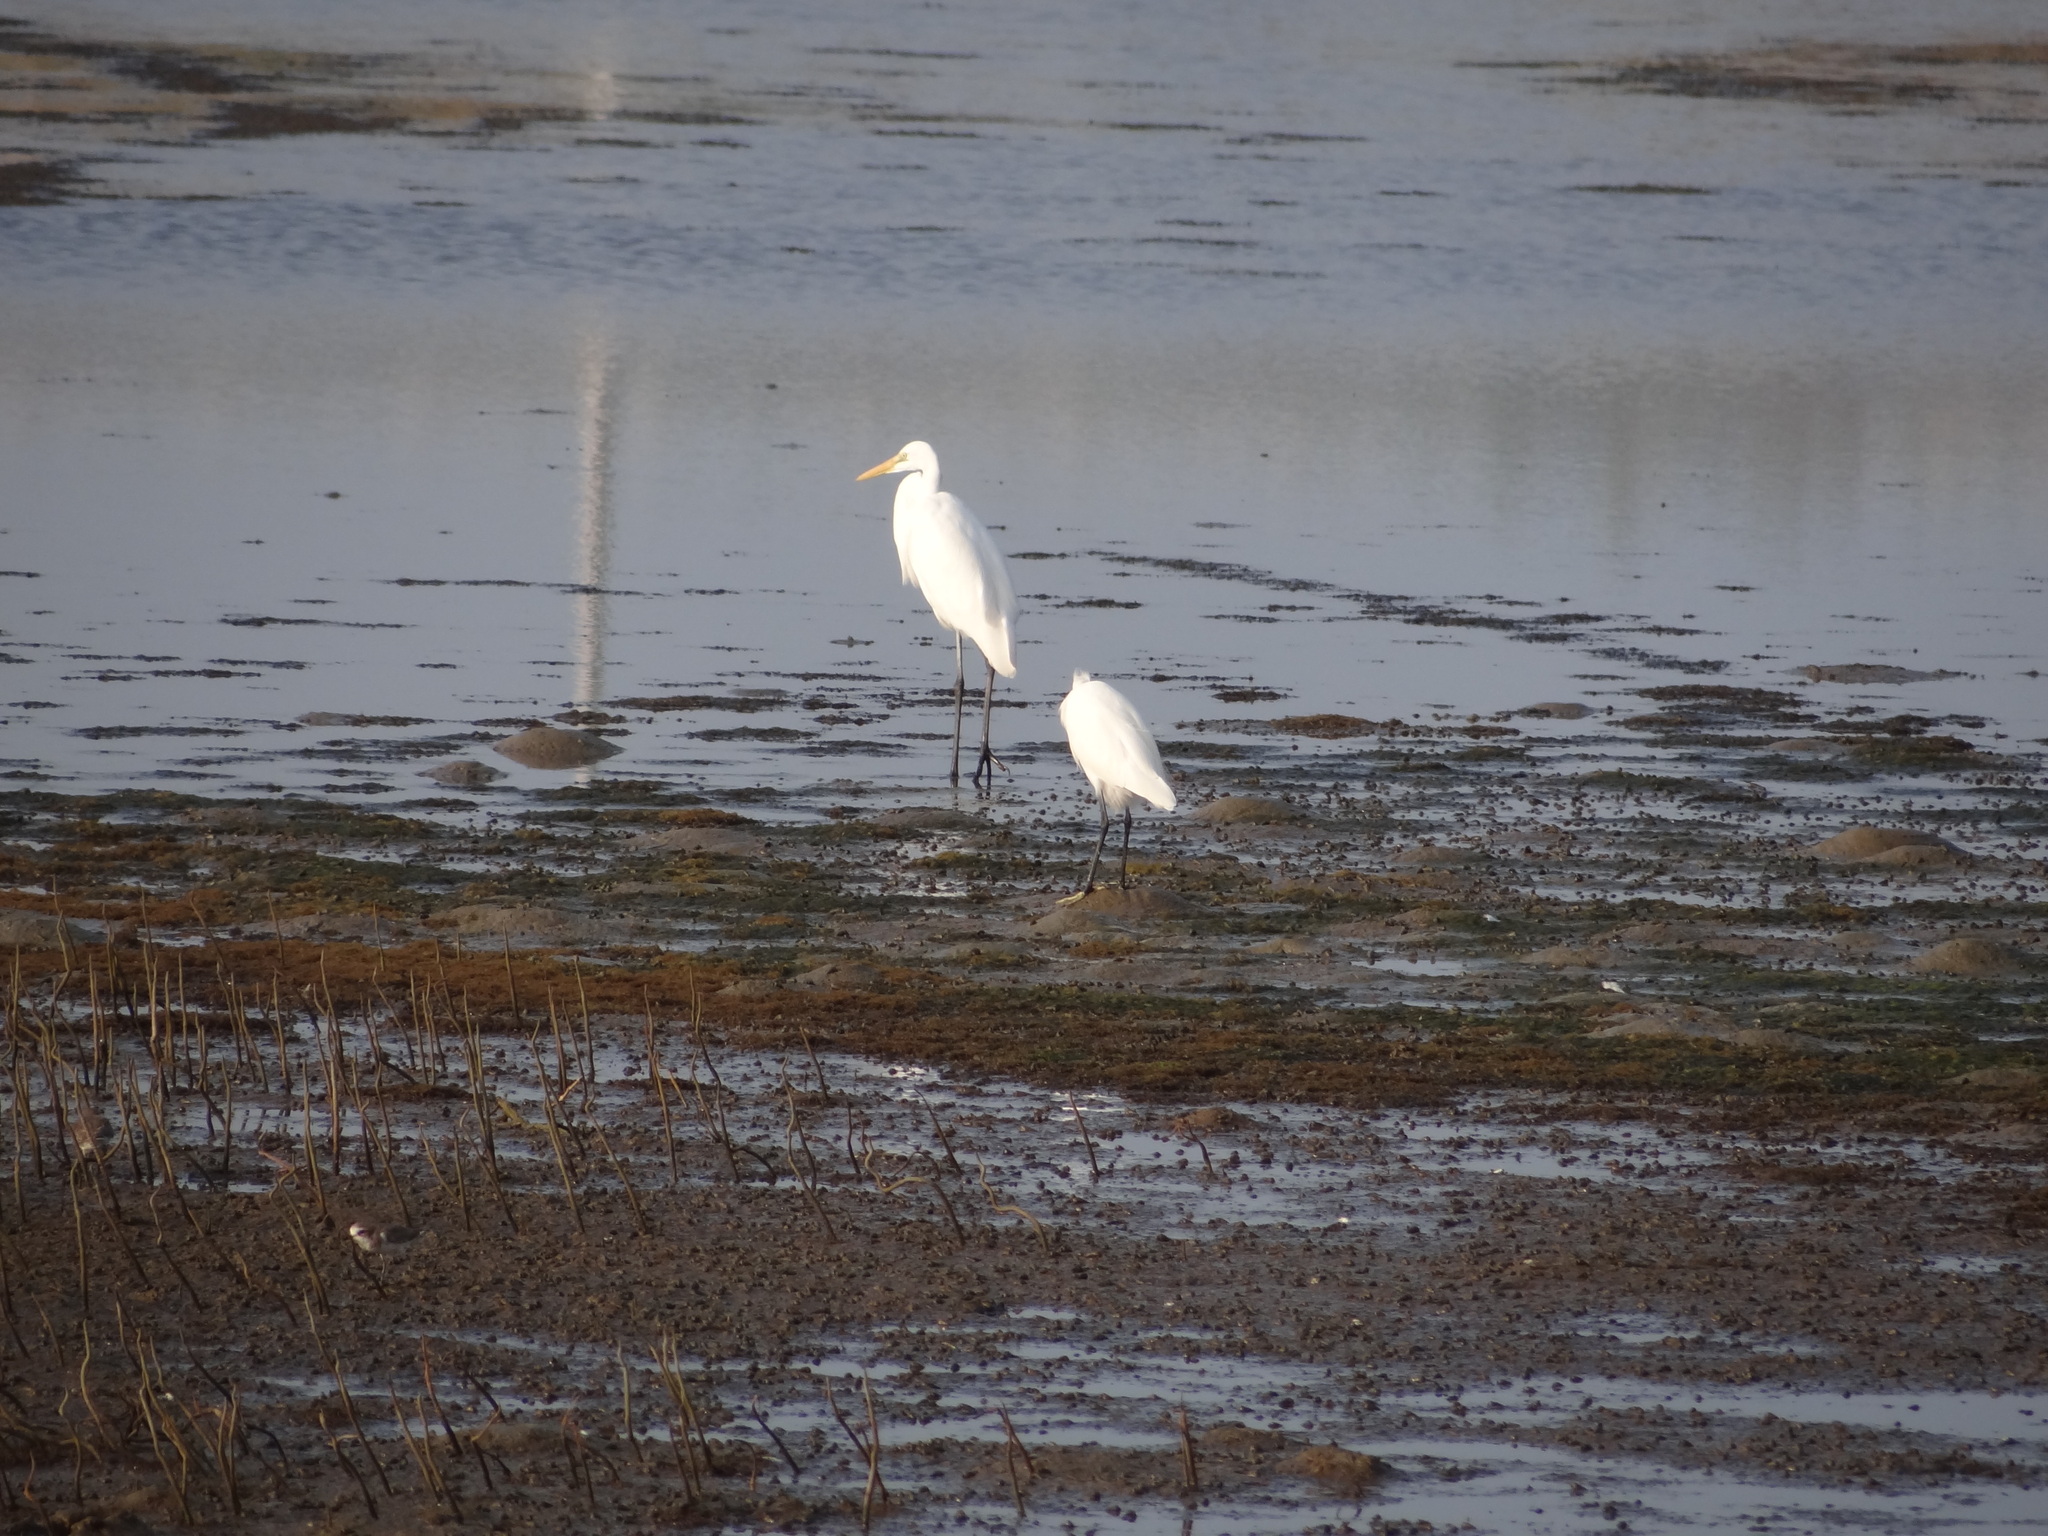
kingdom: Animalia
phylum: Chordata
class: Aves
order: Pelecaniformes
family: Ardeidae
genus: Ardea
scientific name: Ardea alba
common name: Great egret
